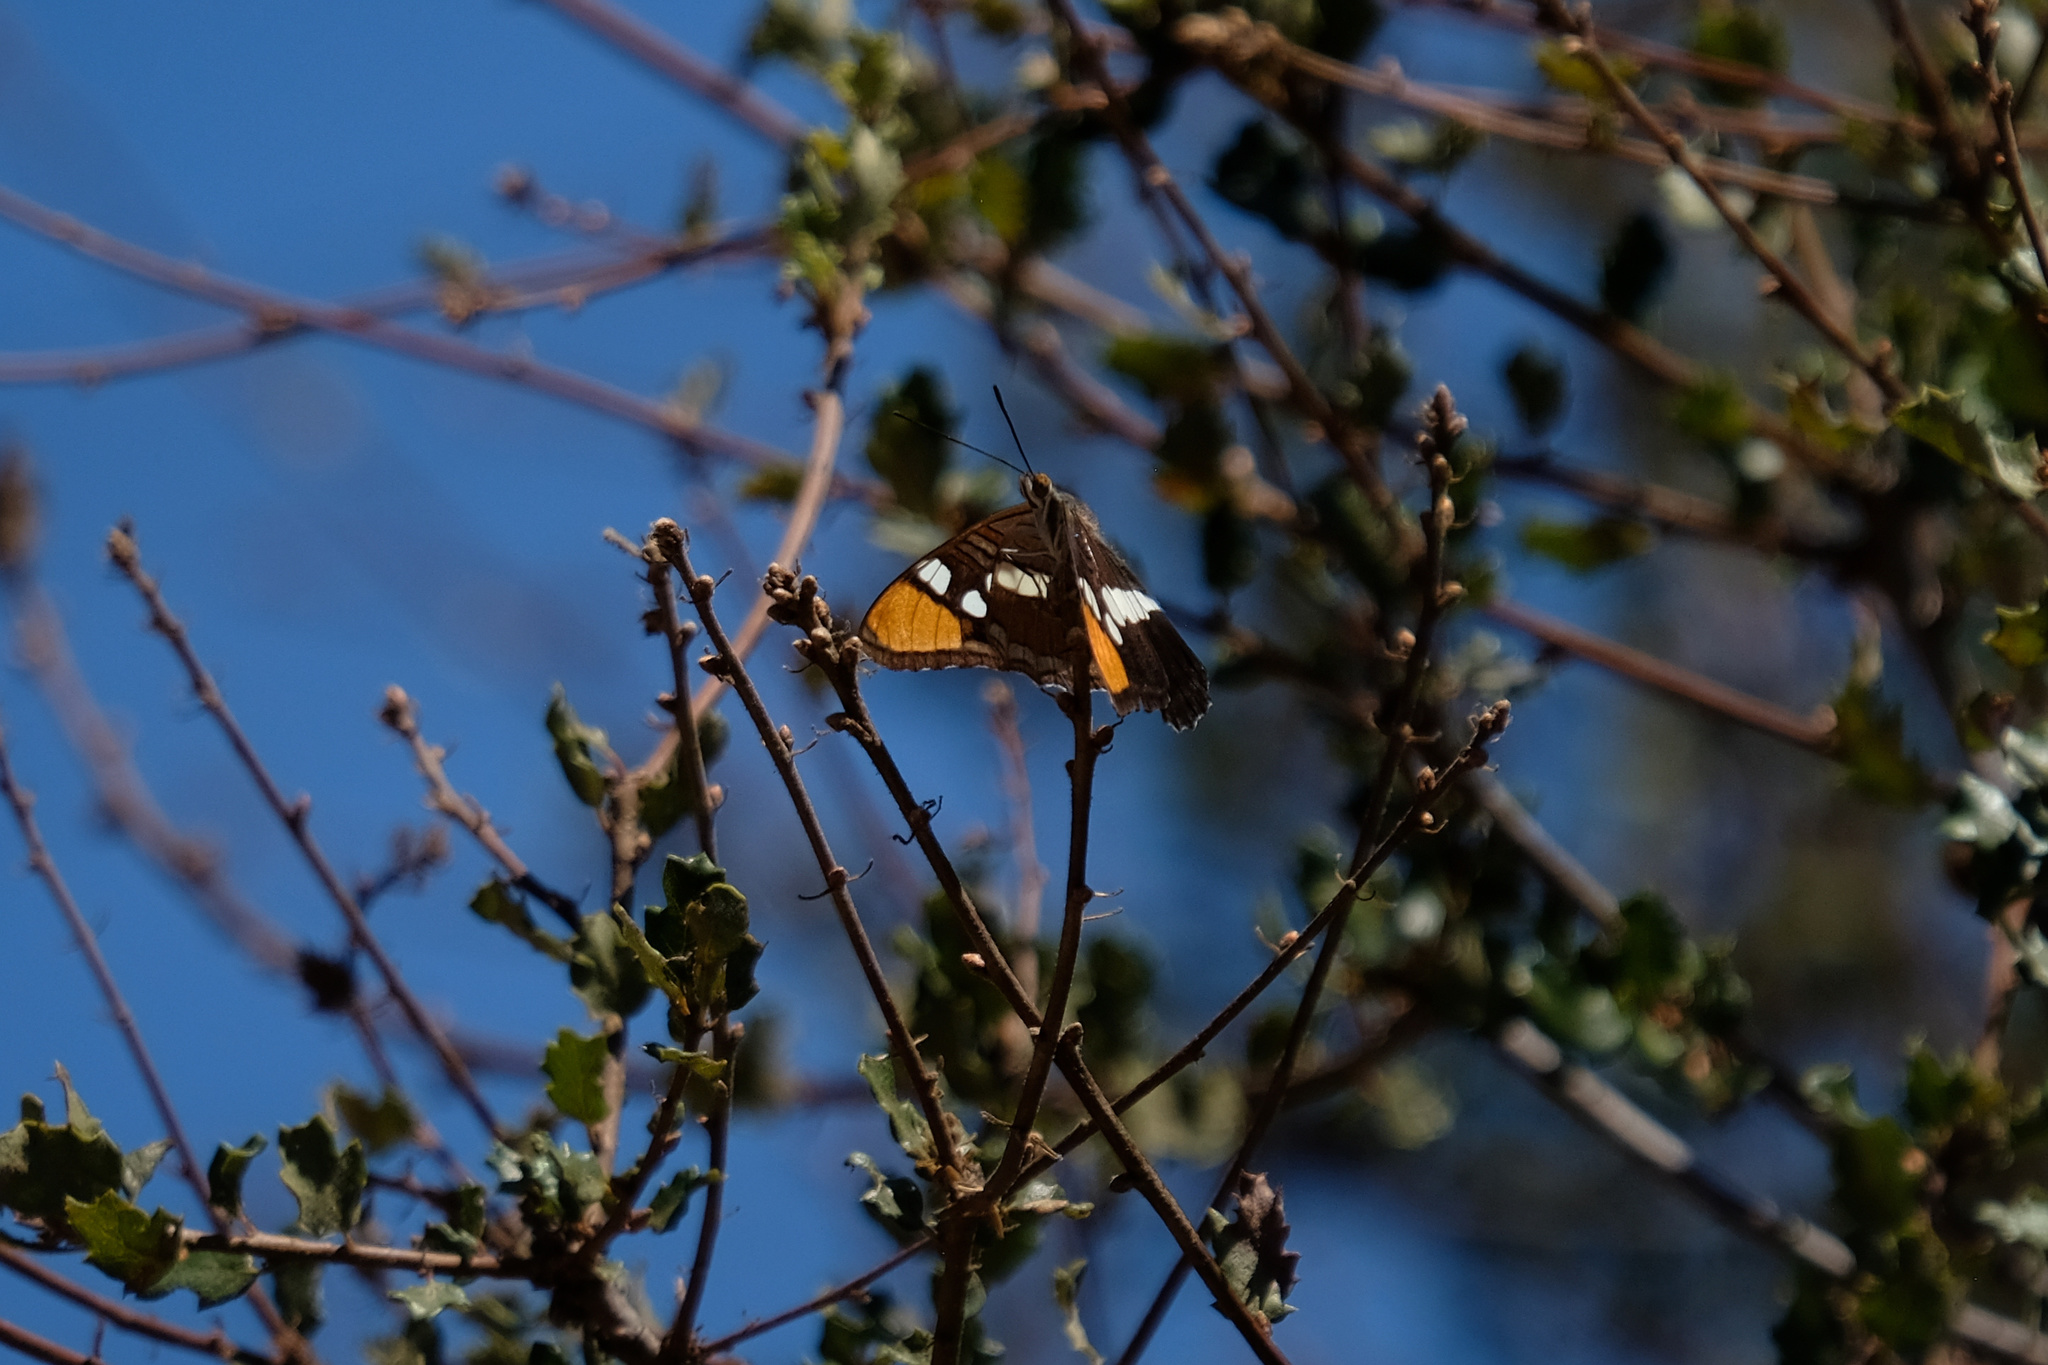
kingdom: Animalia
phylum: Arthropoda
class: Insecta
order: Lepidoptera
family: Nymphalidae
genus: Limenitis
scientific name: Limenitis bredowii
